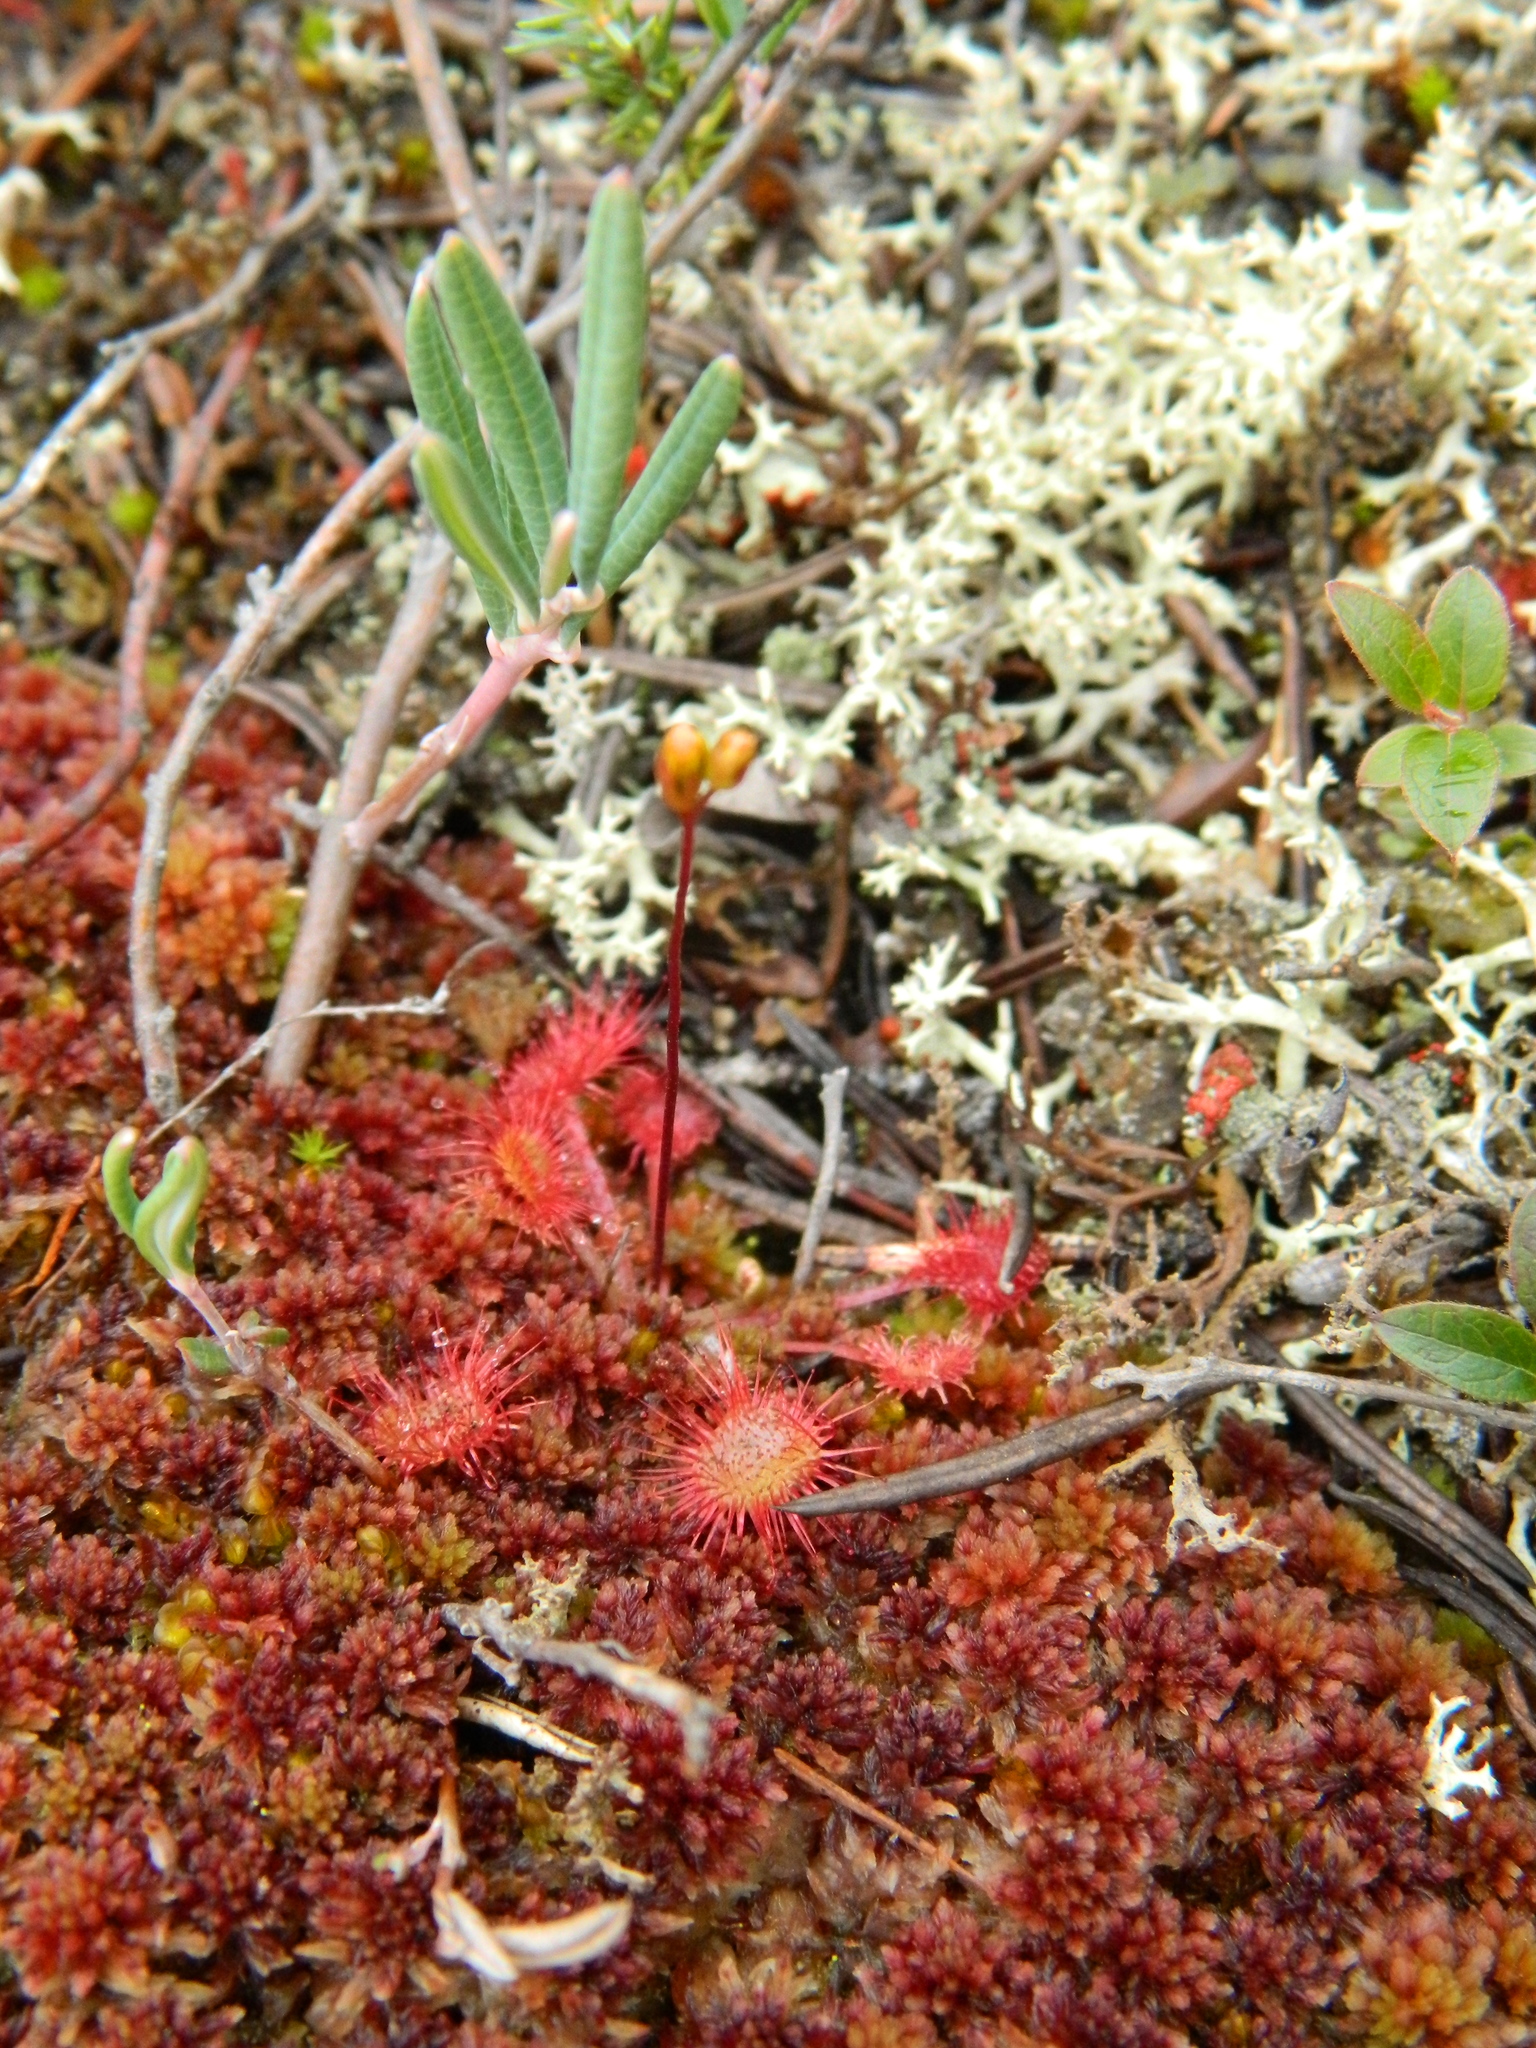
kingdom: Plantae
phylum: Tracheophyta
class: Magnoliopsida
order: Caryophyllales
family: Droseraceae
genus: Drosera
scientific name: Drosera rotundifolia
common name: Round-leaved sundew
